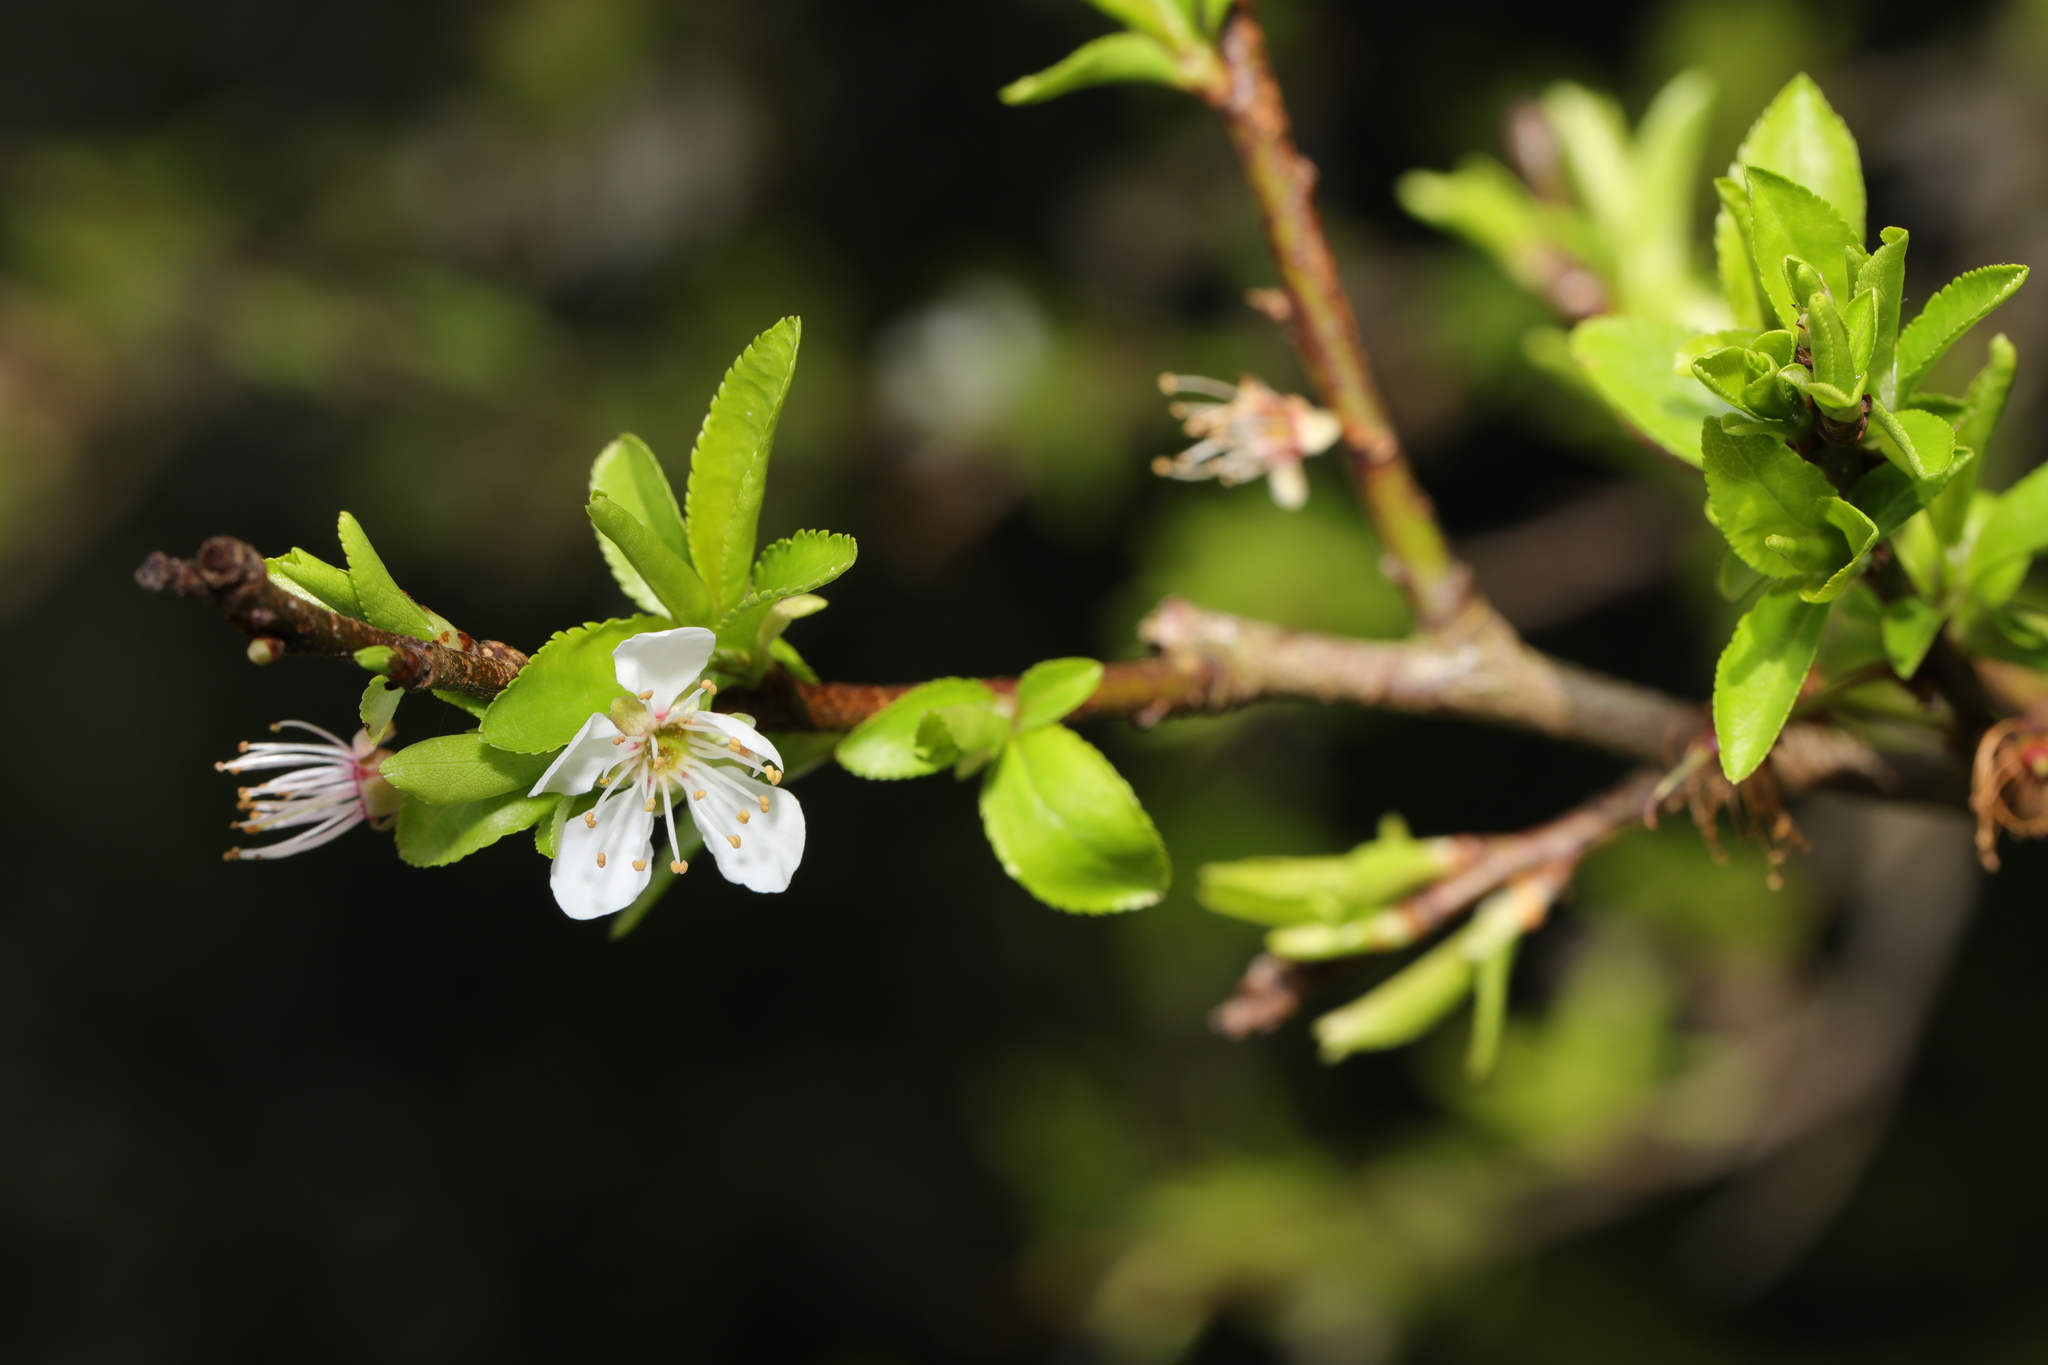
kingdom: Plantae
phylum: Tracheophyta
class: Magnoliopsida
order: Rosales
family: Rosaceae
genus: Prunus
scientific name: Prunus spinosa
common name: Blackthorn
